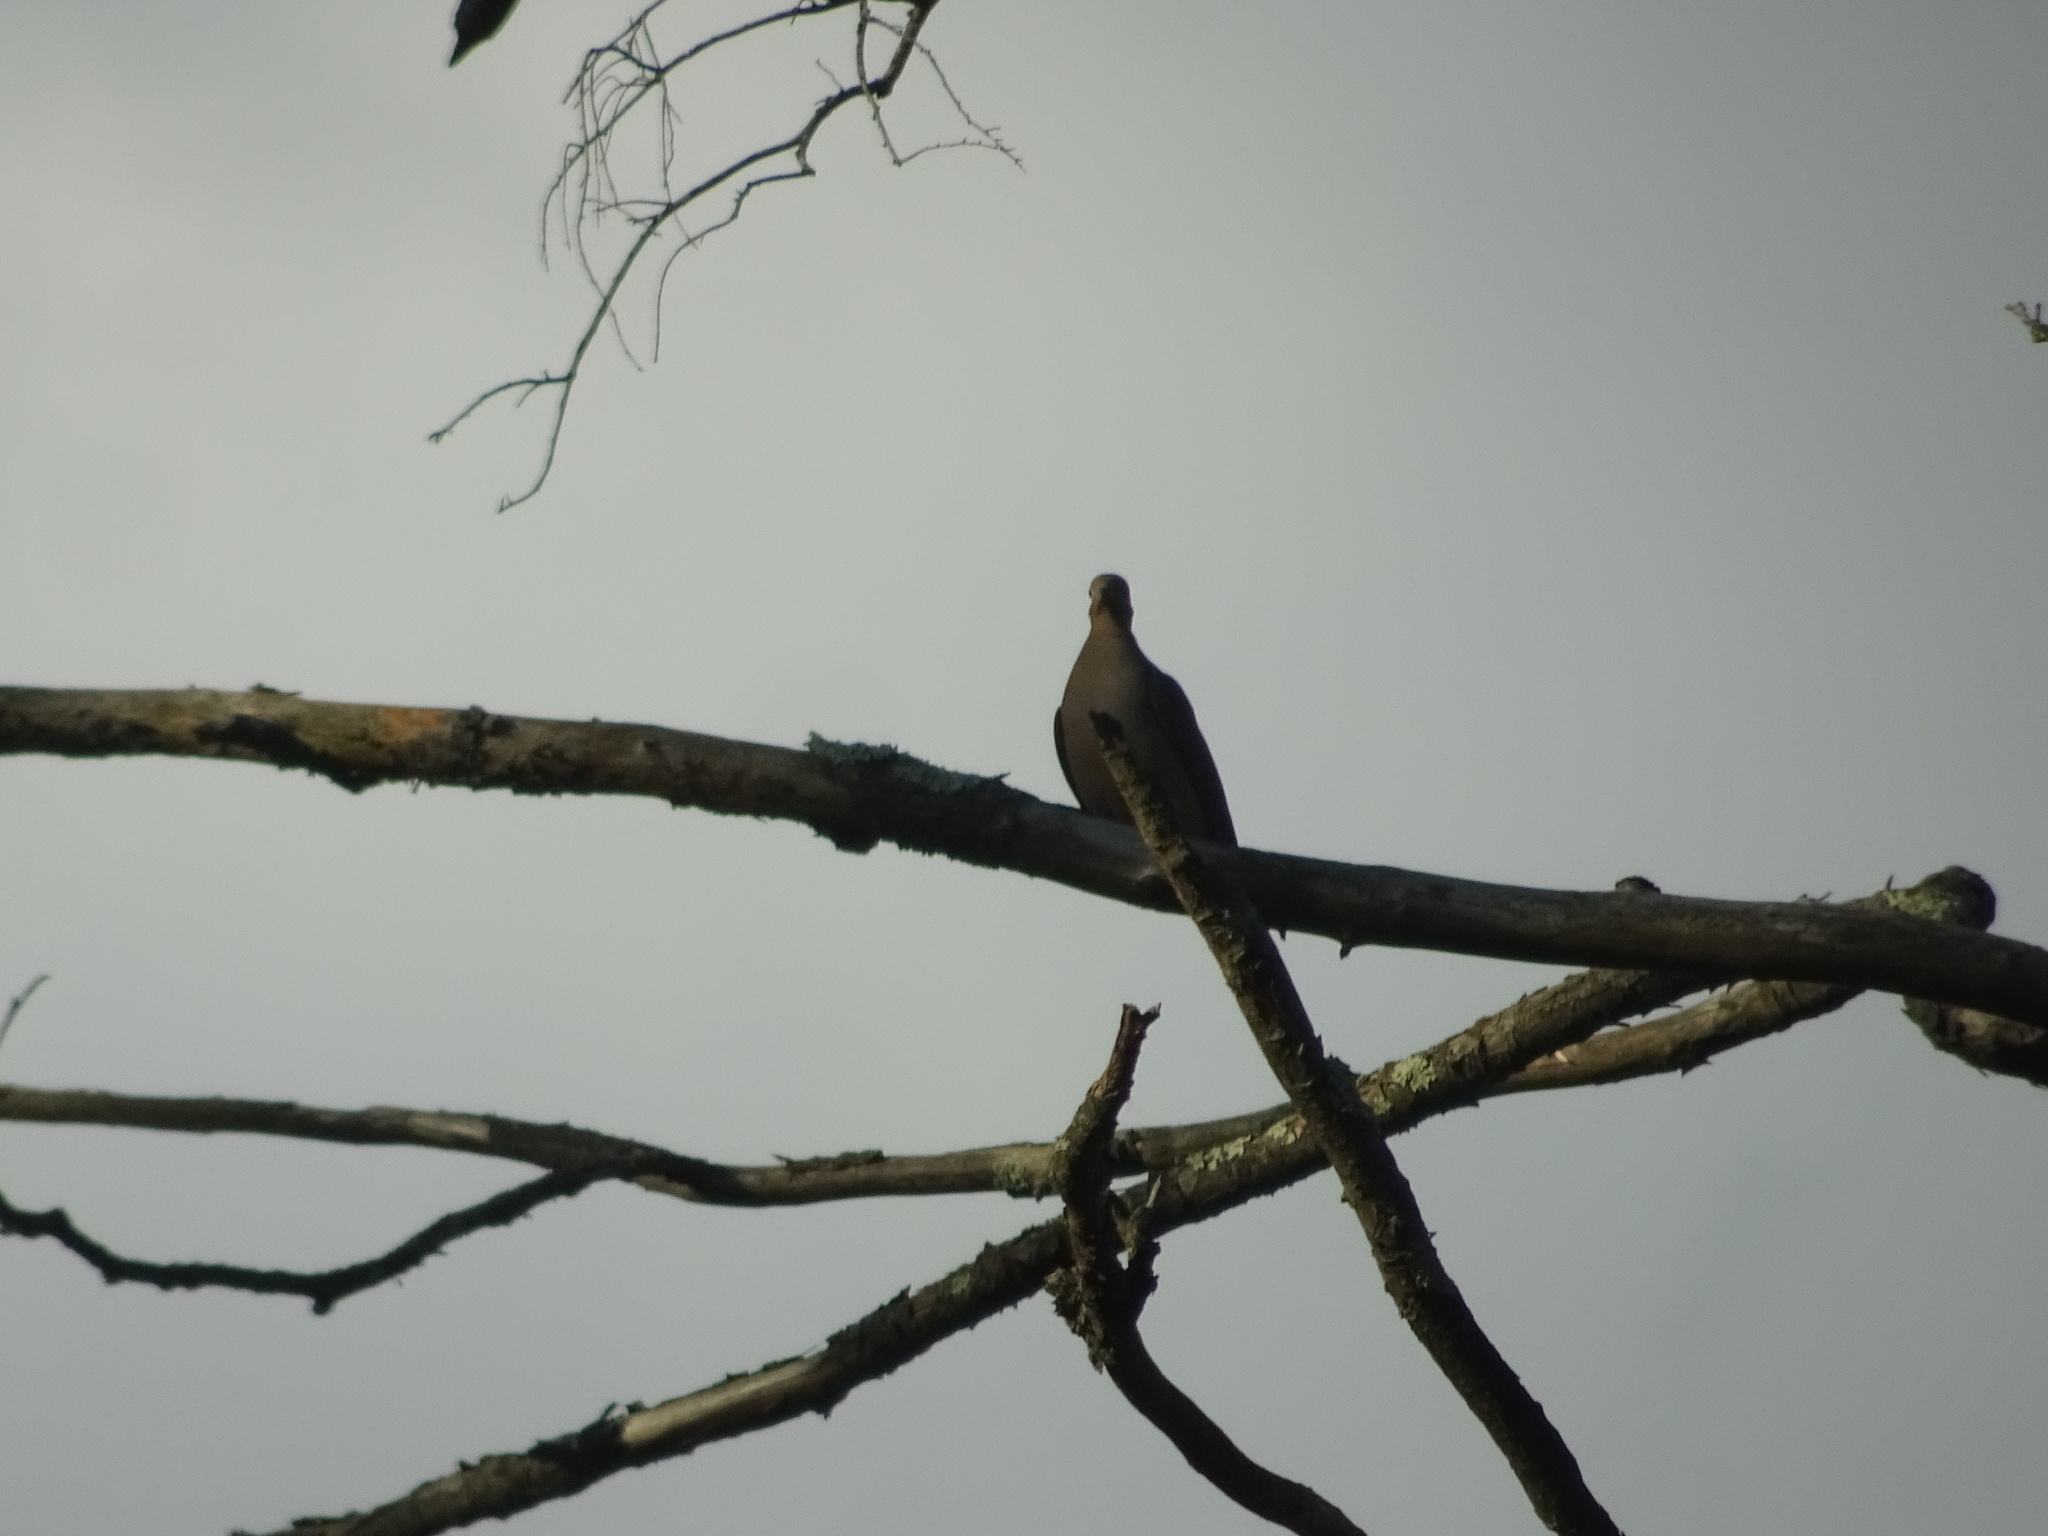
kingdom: Animalia
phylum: Chordata
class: Aves
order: Columbiformes
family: Columbidae
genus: Zenaida
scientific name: Zenaida macroura
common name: Mourning dove
